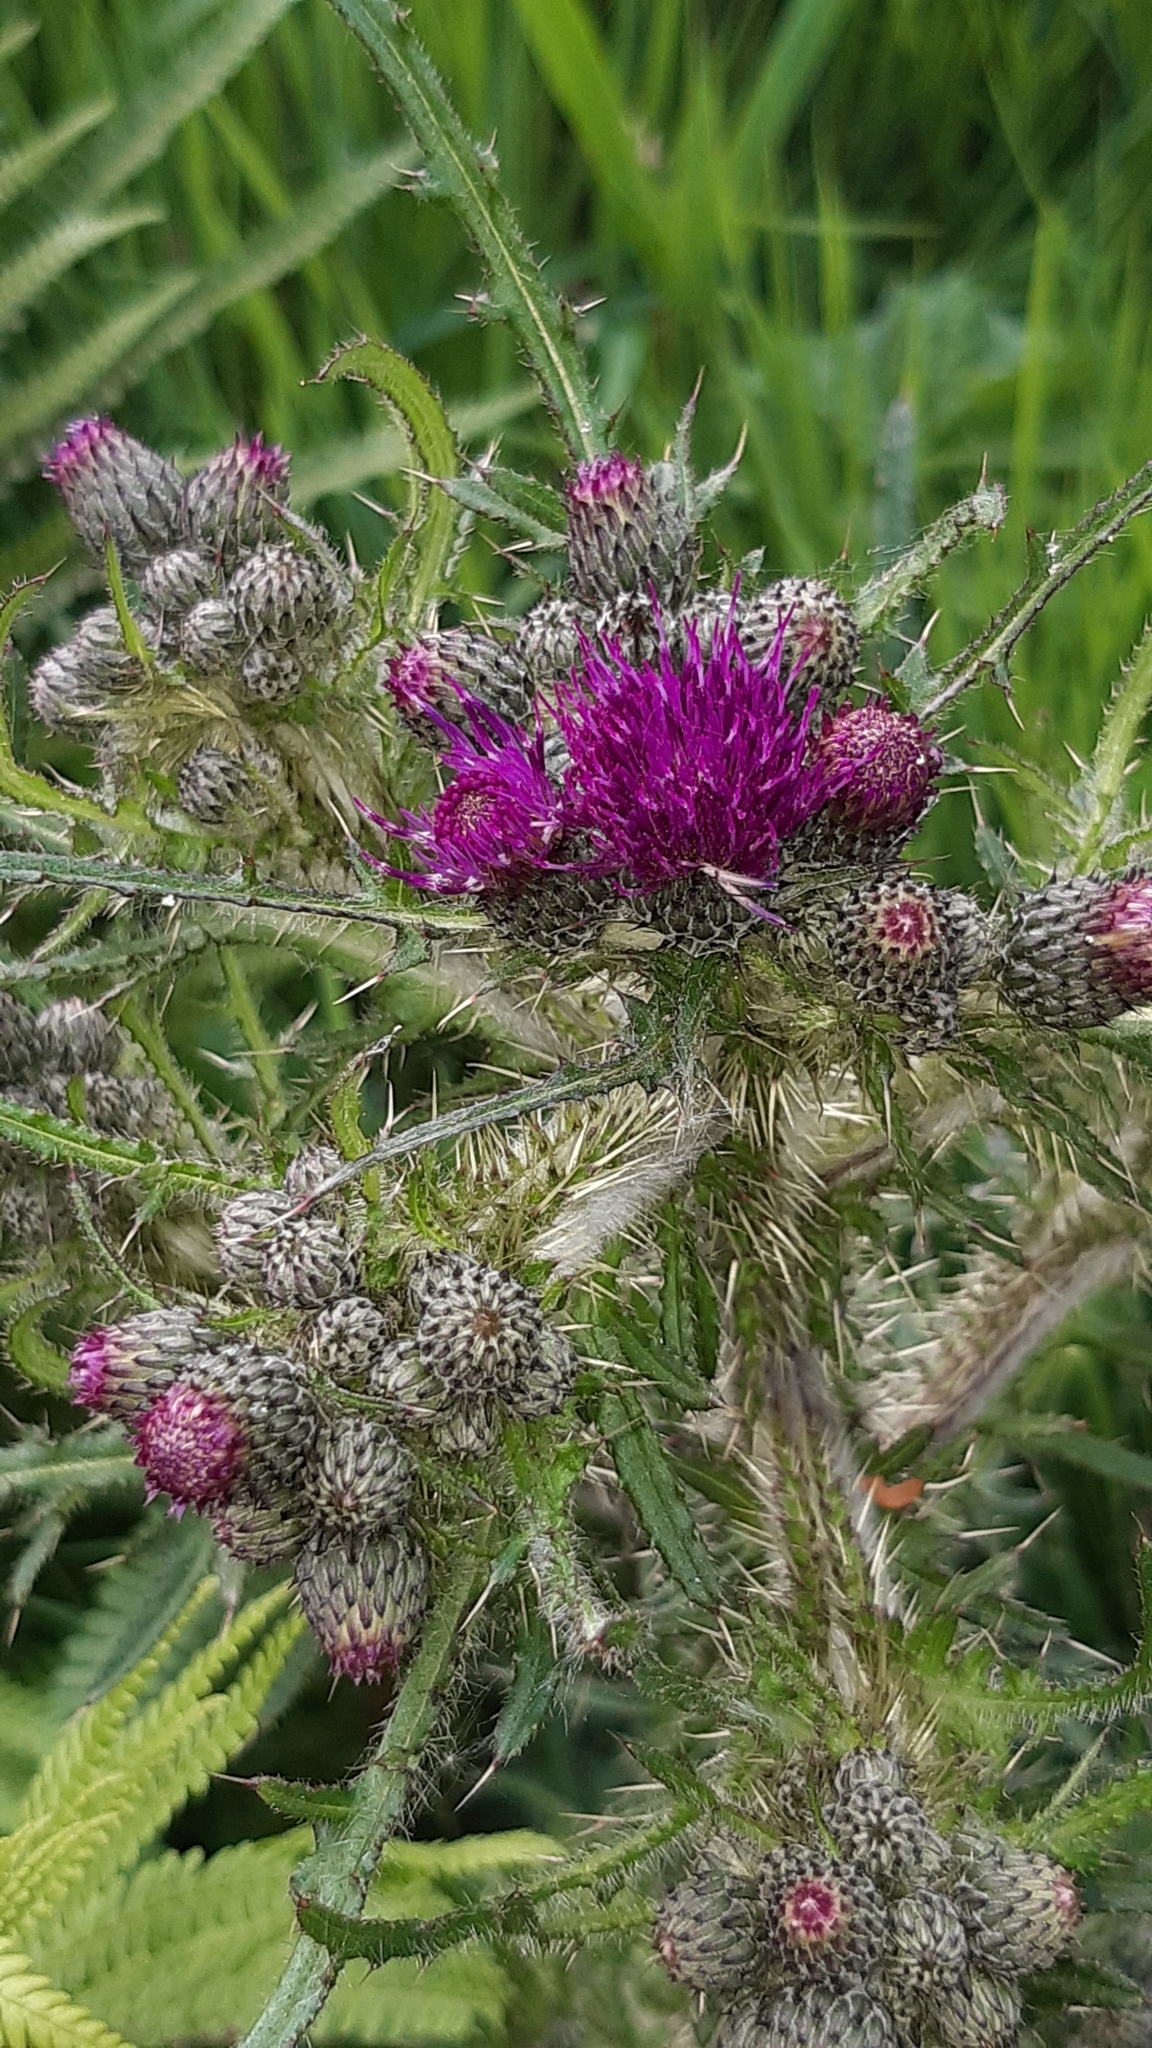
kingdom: Plantae
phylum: Tracheophyta
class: Magnoliopsida
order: Asterales
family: Asteraceae
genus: Cirsium
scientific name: Cirsium palustre
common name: Marsh thistle
